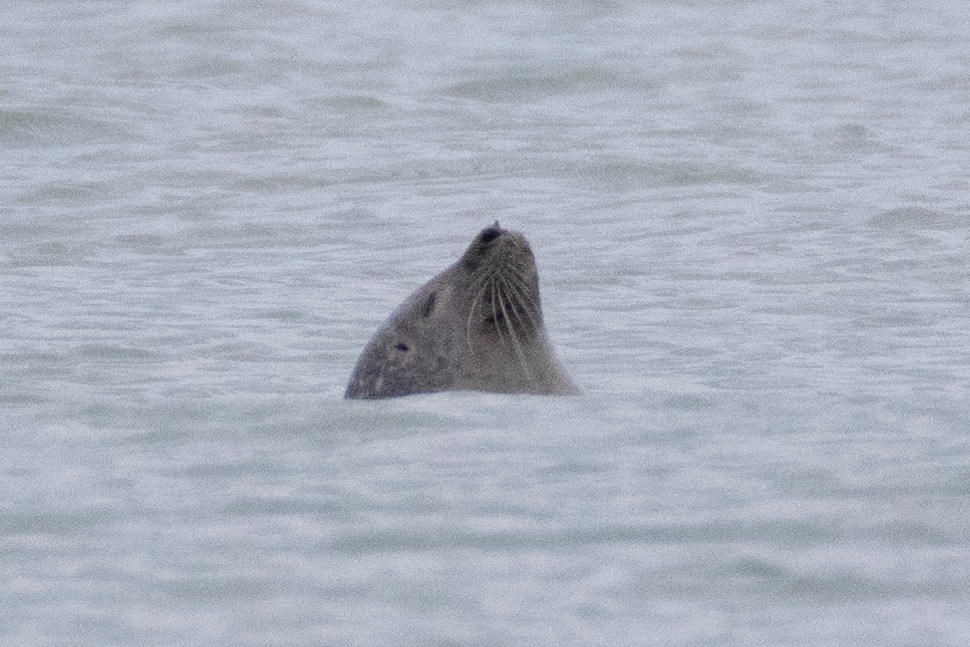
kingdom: Animalia
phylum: Chordata
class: Mammalia
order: Carnivora
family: Phocidae
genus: Phoca
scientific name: Phoca vitulina
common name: Harbor seal
